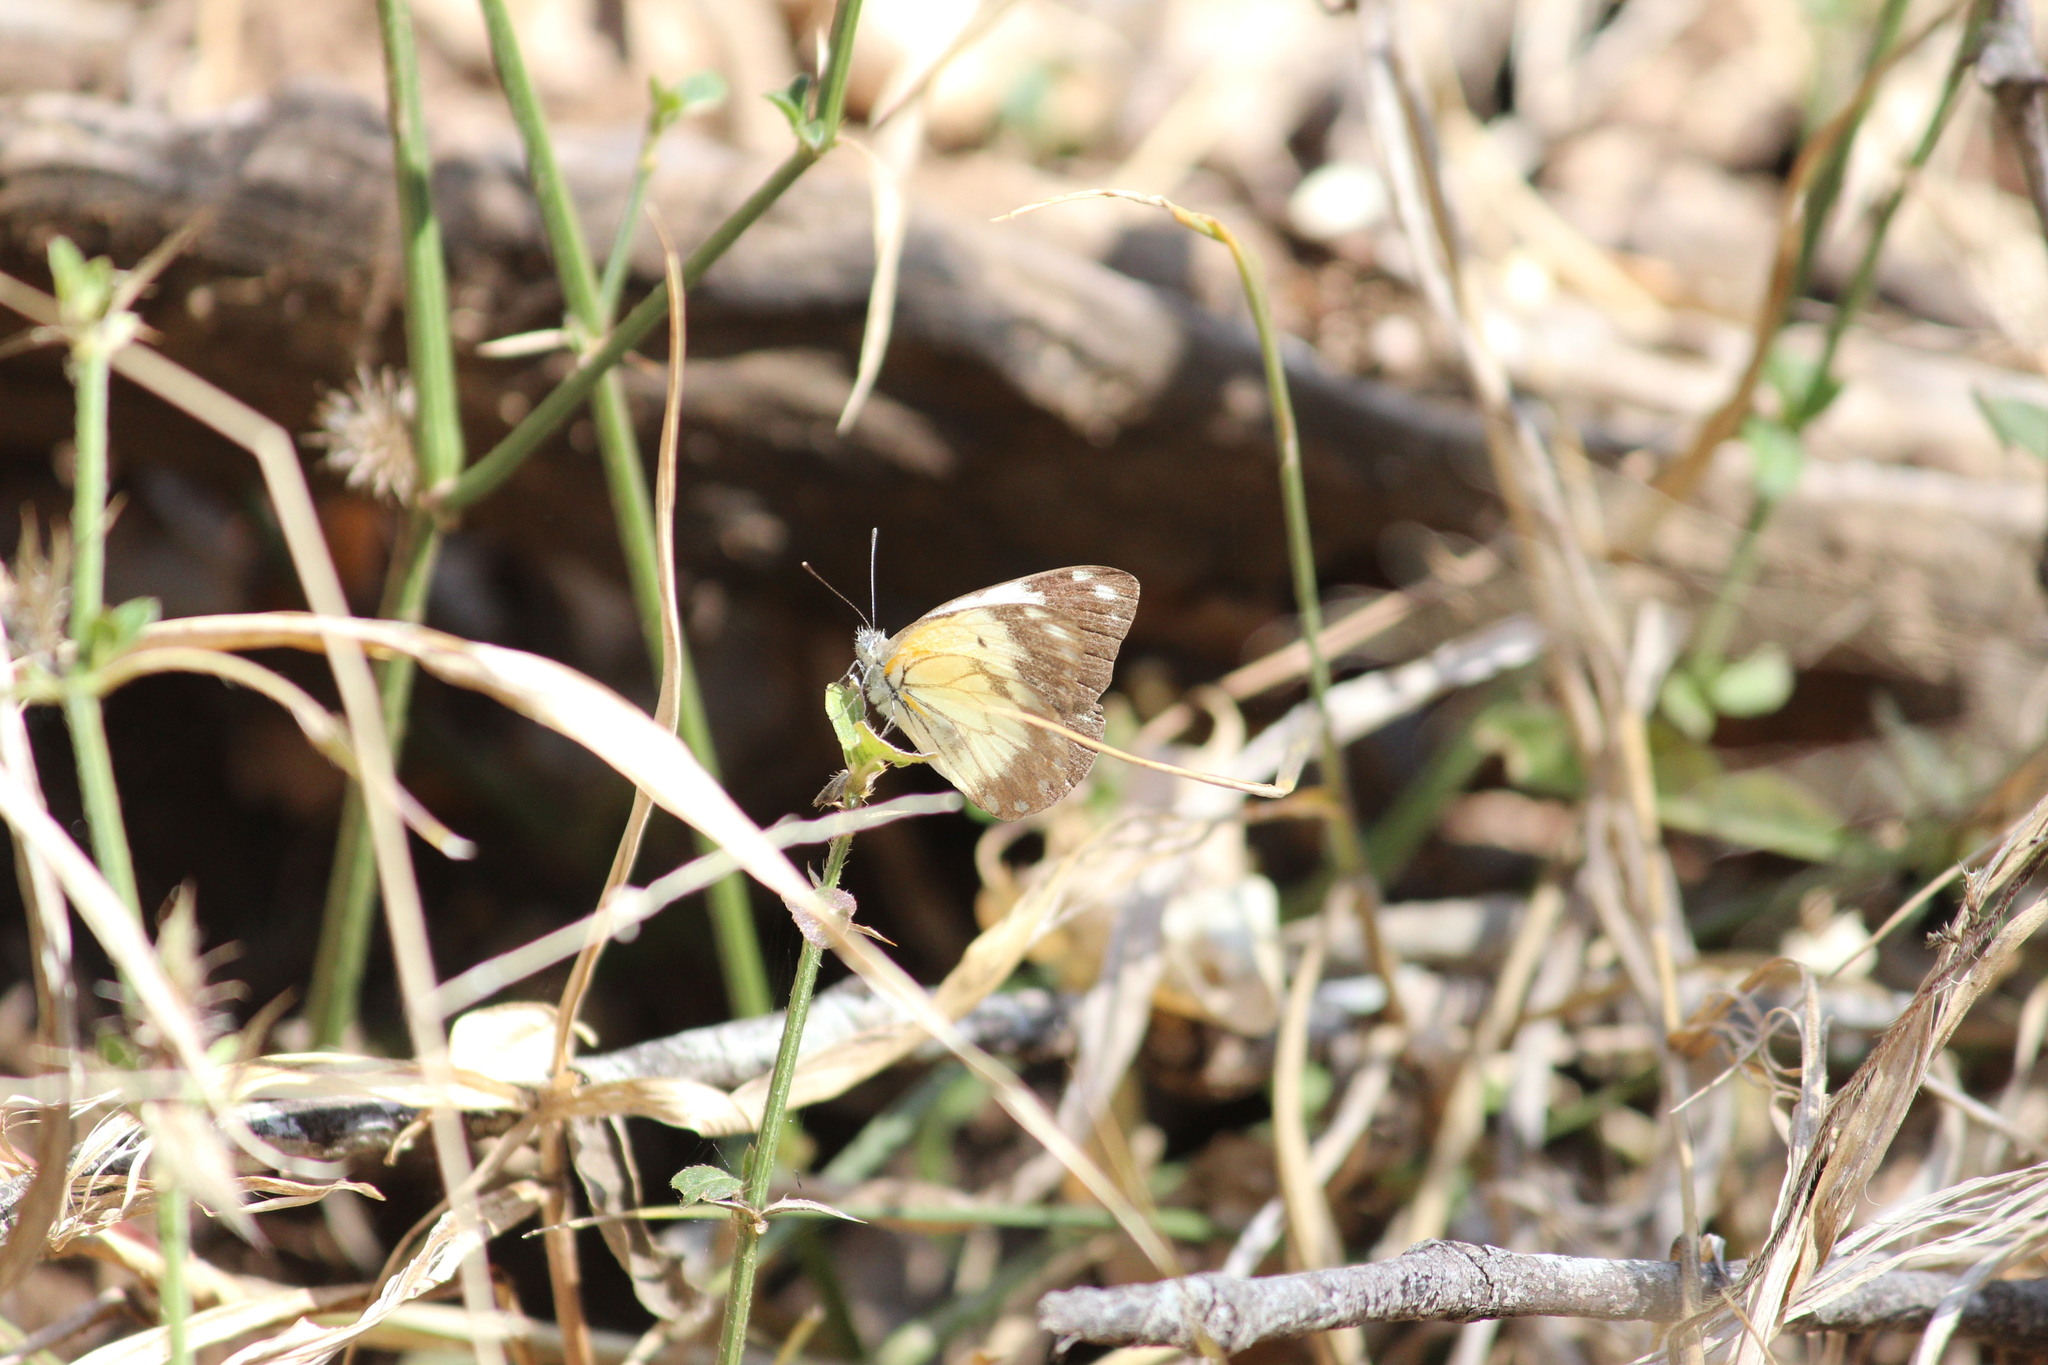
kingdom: Animalia
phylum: Arthropoda
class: Insecta
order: Lepidoptera
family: Pieridae
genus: Belenois
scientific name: Belenois creona
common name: African caper white
